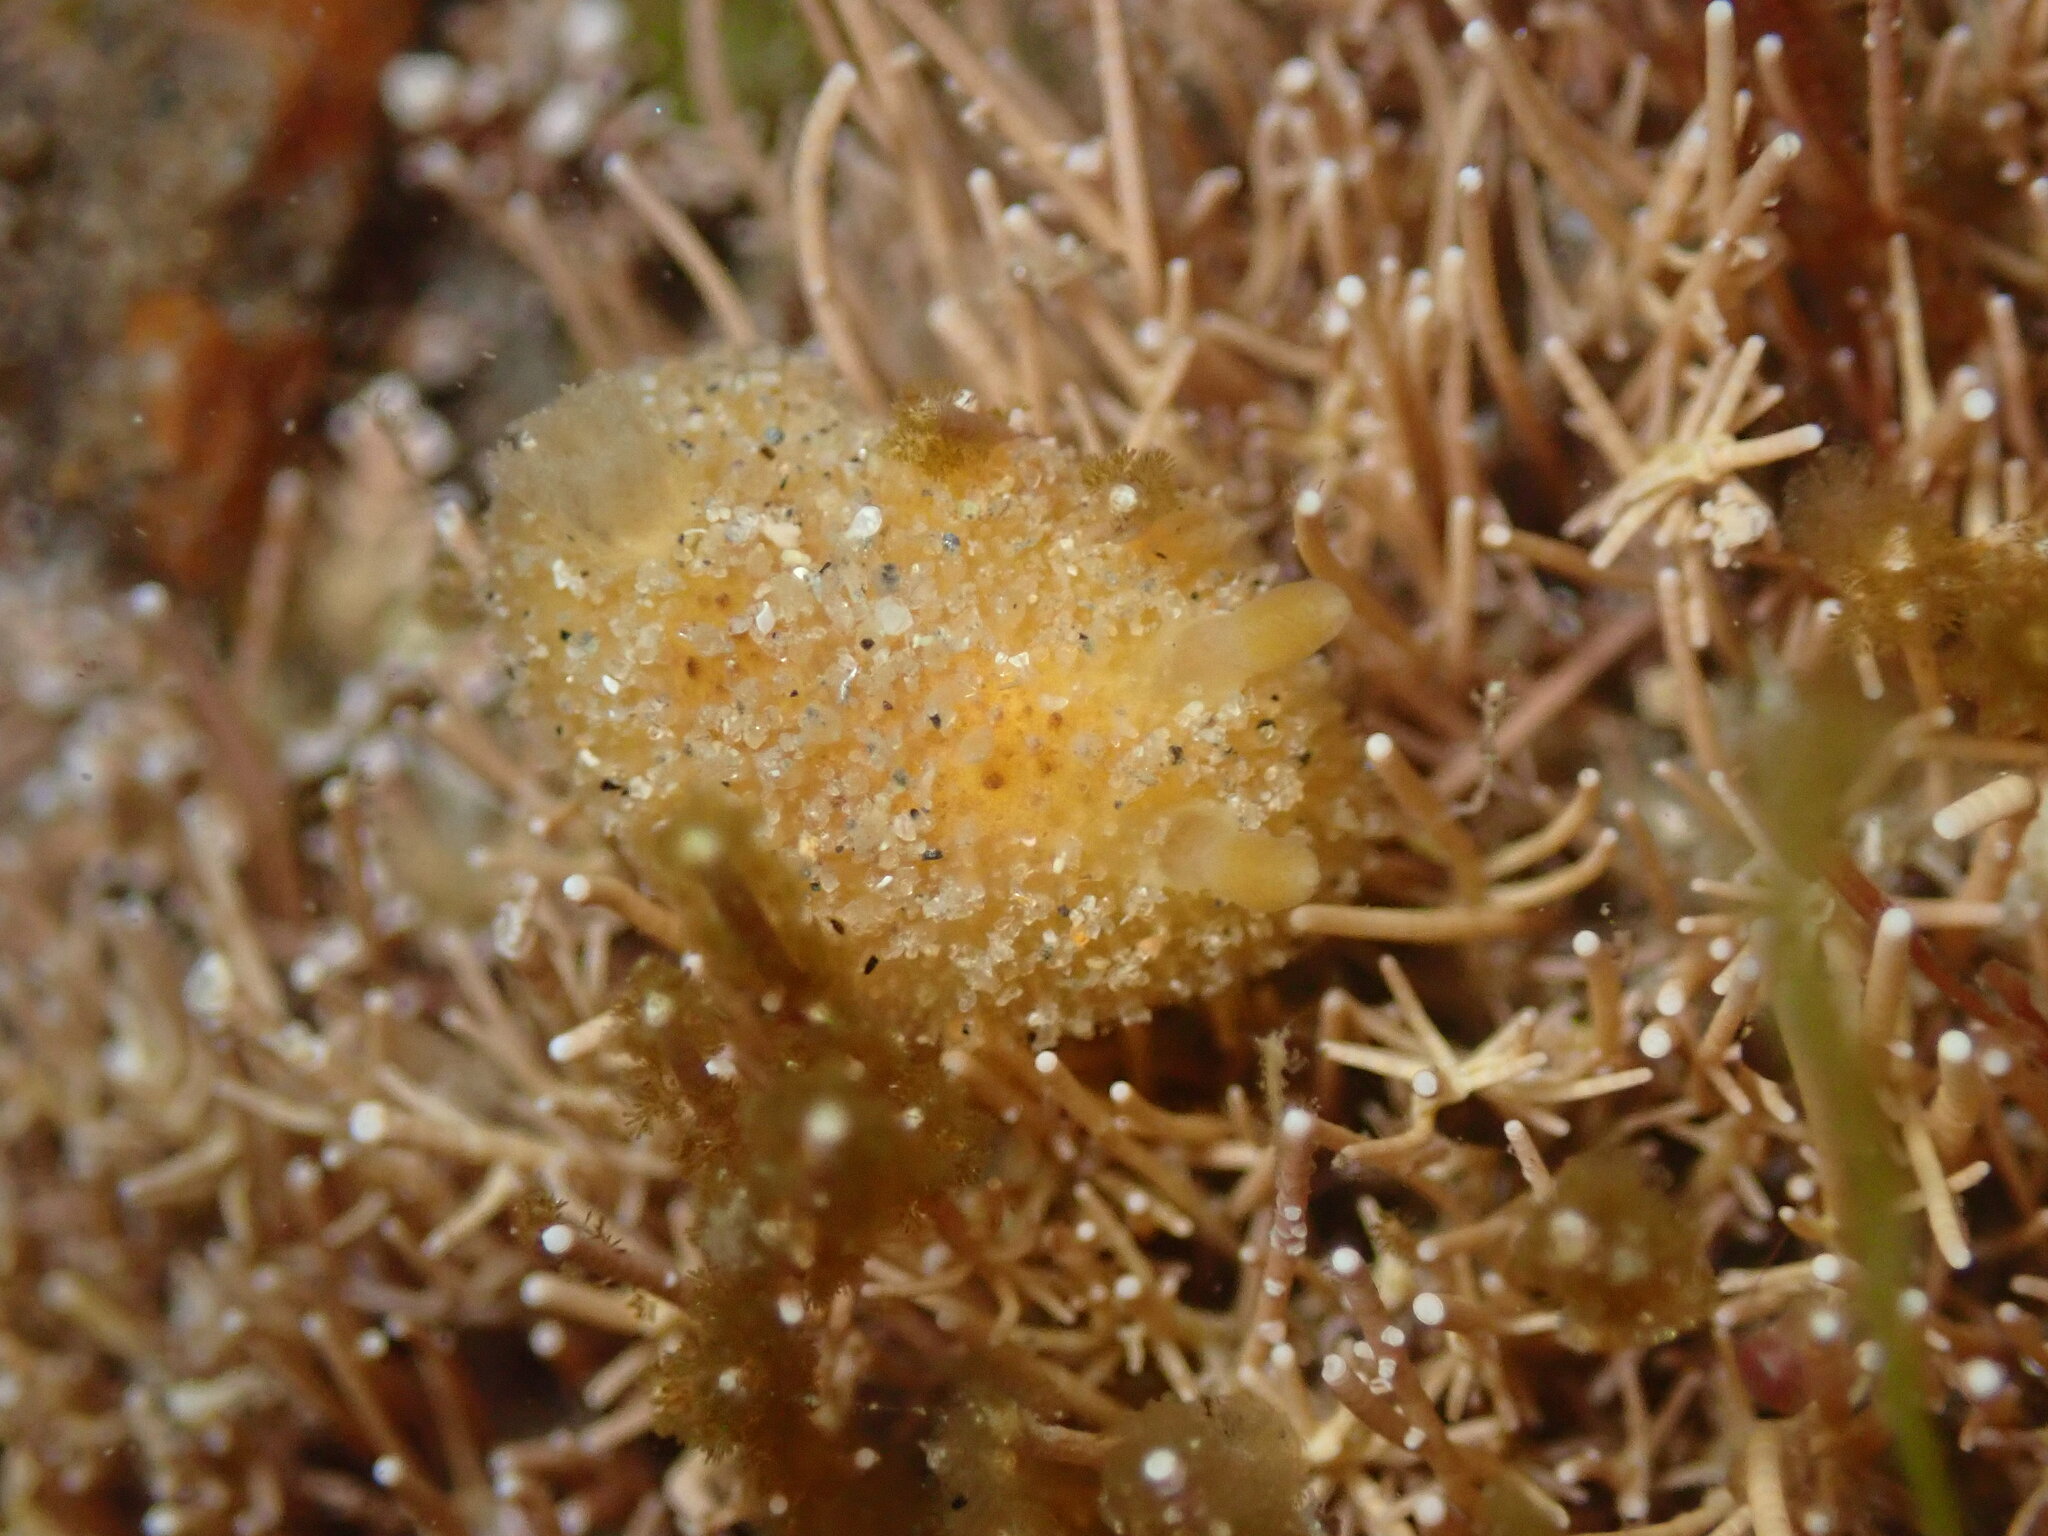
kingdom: Animalia
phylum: Mollusca
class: Gastropoda
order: Nudibranchia
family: Discodorididae
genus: Thordisa
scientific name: Thordisa bimaculata
